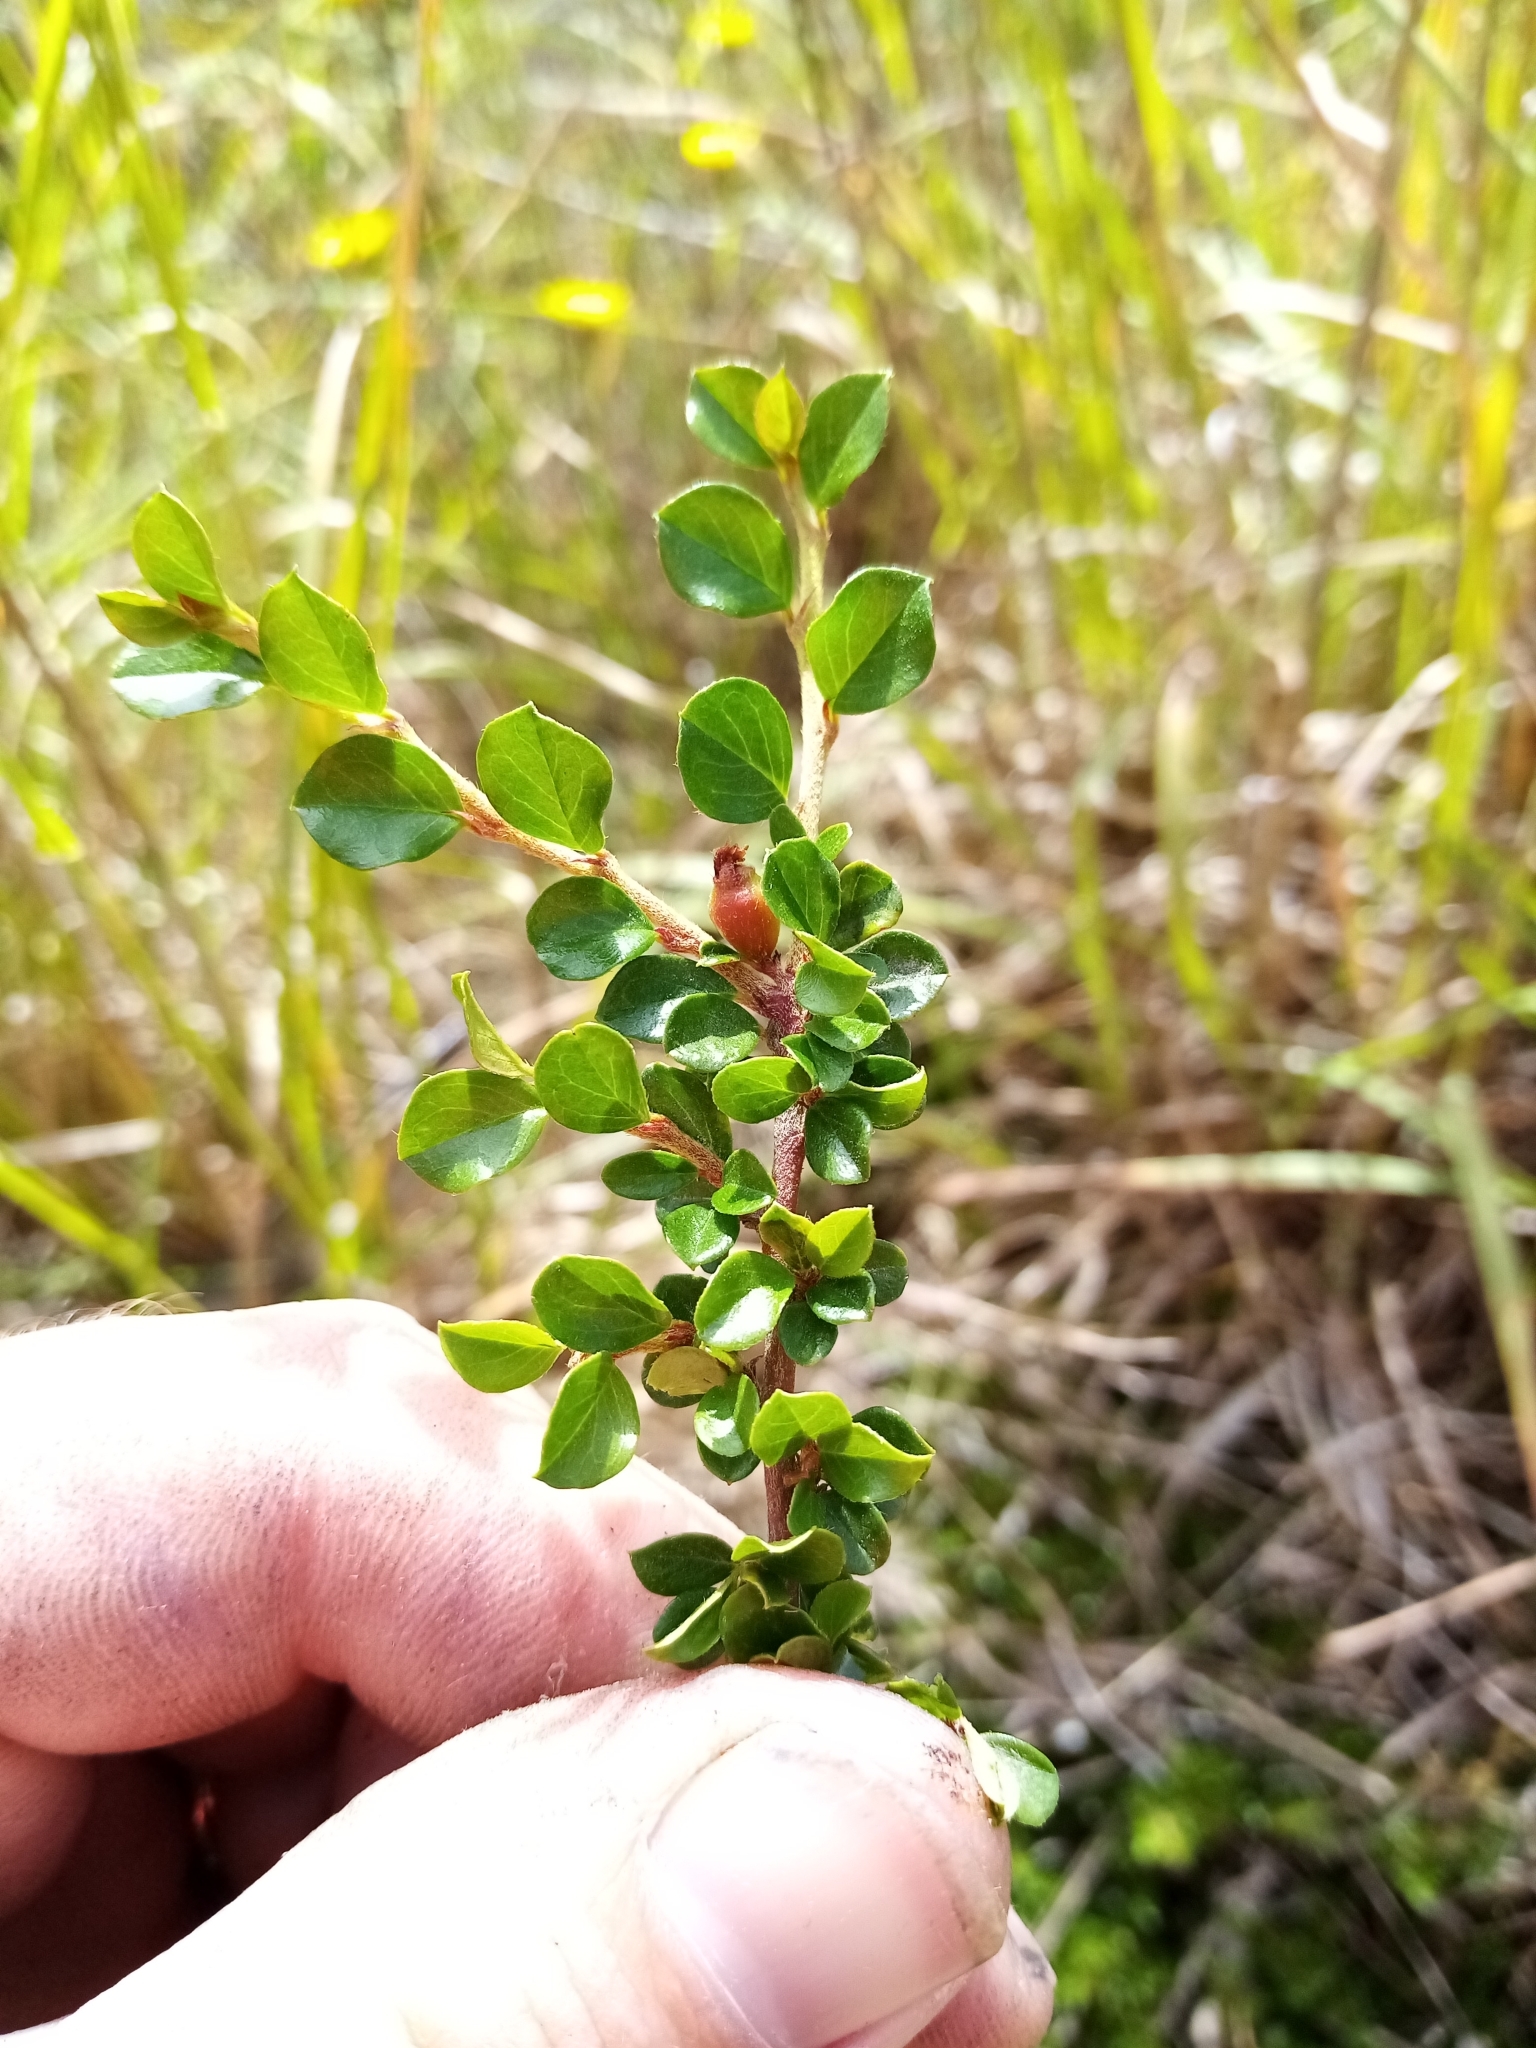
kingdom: Plantae
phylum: Tracheophyta
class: Magnoliopsida
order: Rosales
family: Rosaceae
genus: Cotoneaster
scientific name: Cotoneaster horizontalis
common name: Wall cotoneaster
